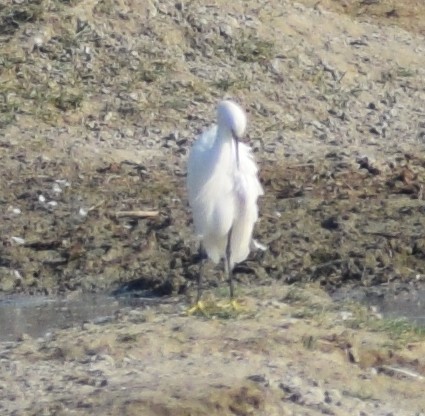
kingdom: Animalia
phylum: Chordata
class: Aves
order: Pelecaniformes
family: Ardeidae
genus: Egretta
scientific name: Egretta garzetta
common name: Little egret
